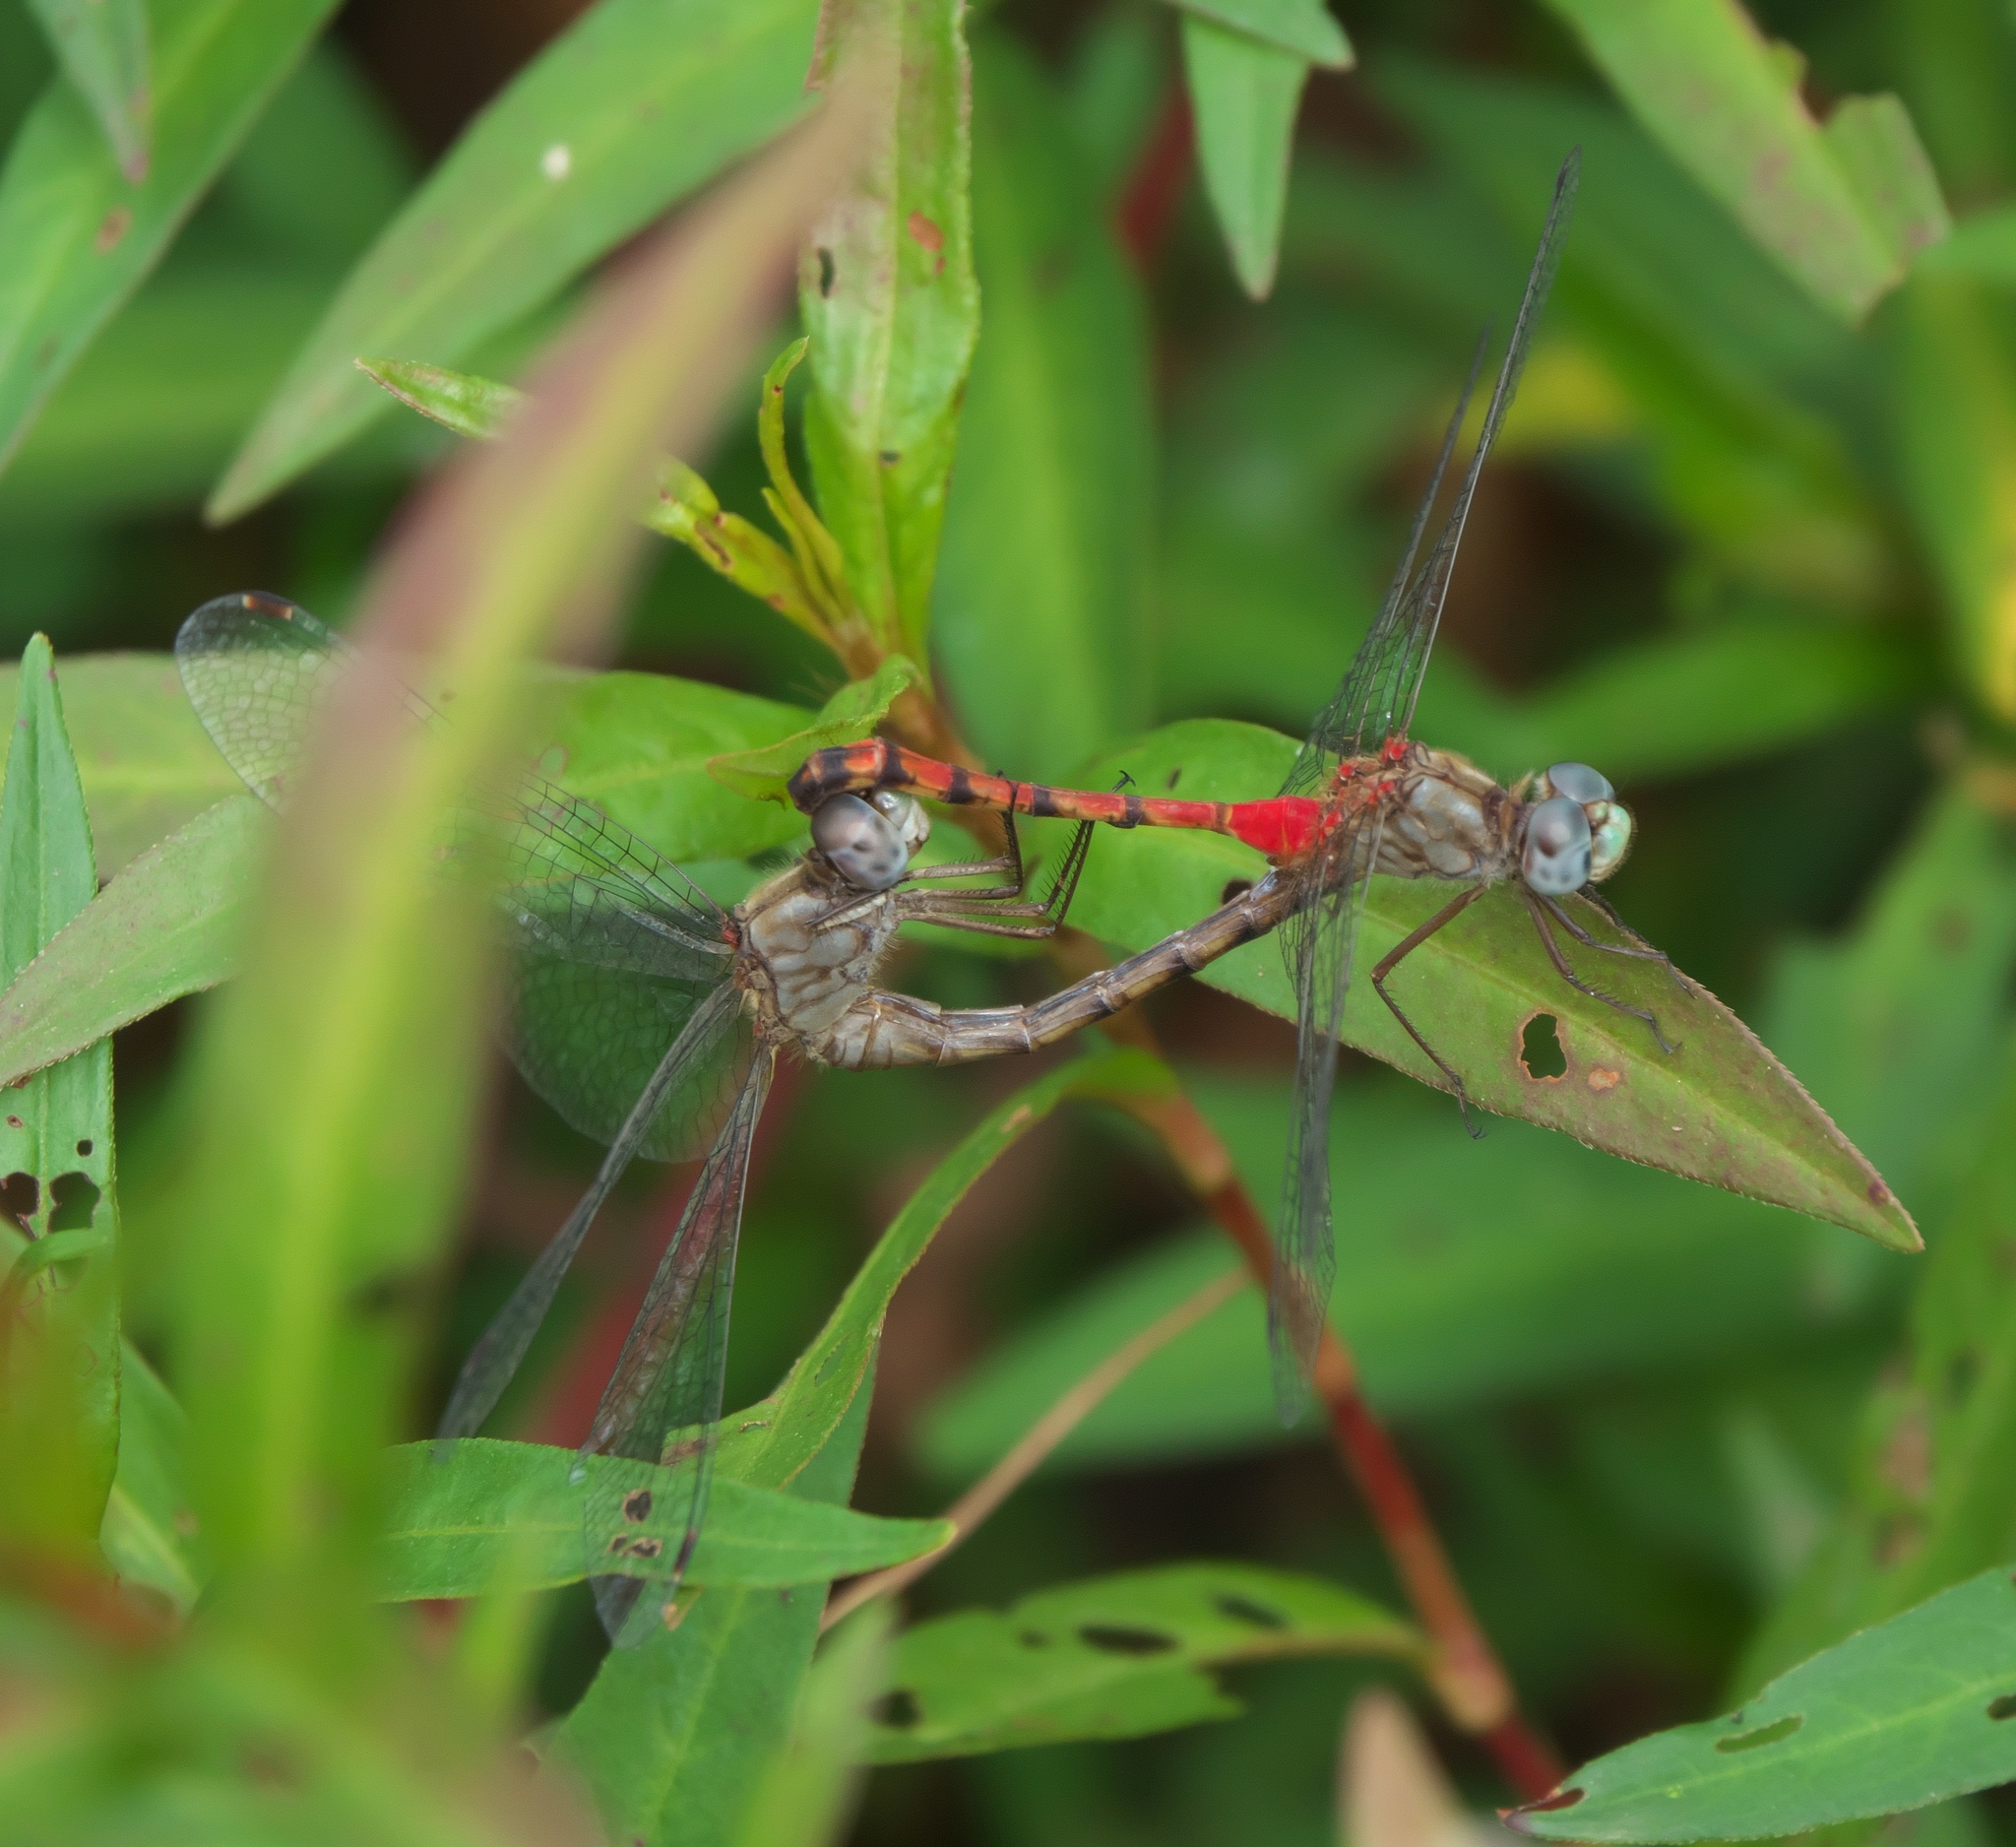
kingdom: Animalia
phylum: Arthropoda
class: Insecta
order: Odonata
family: Libellulidae
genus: Sympetrum
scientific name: Sympetrum ambiguum
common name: Blue-faced meadowhawk
